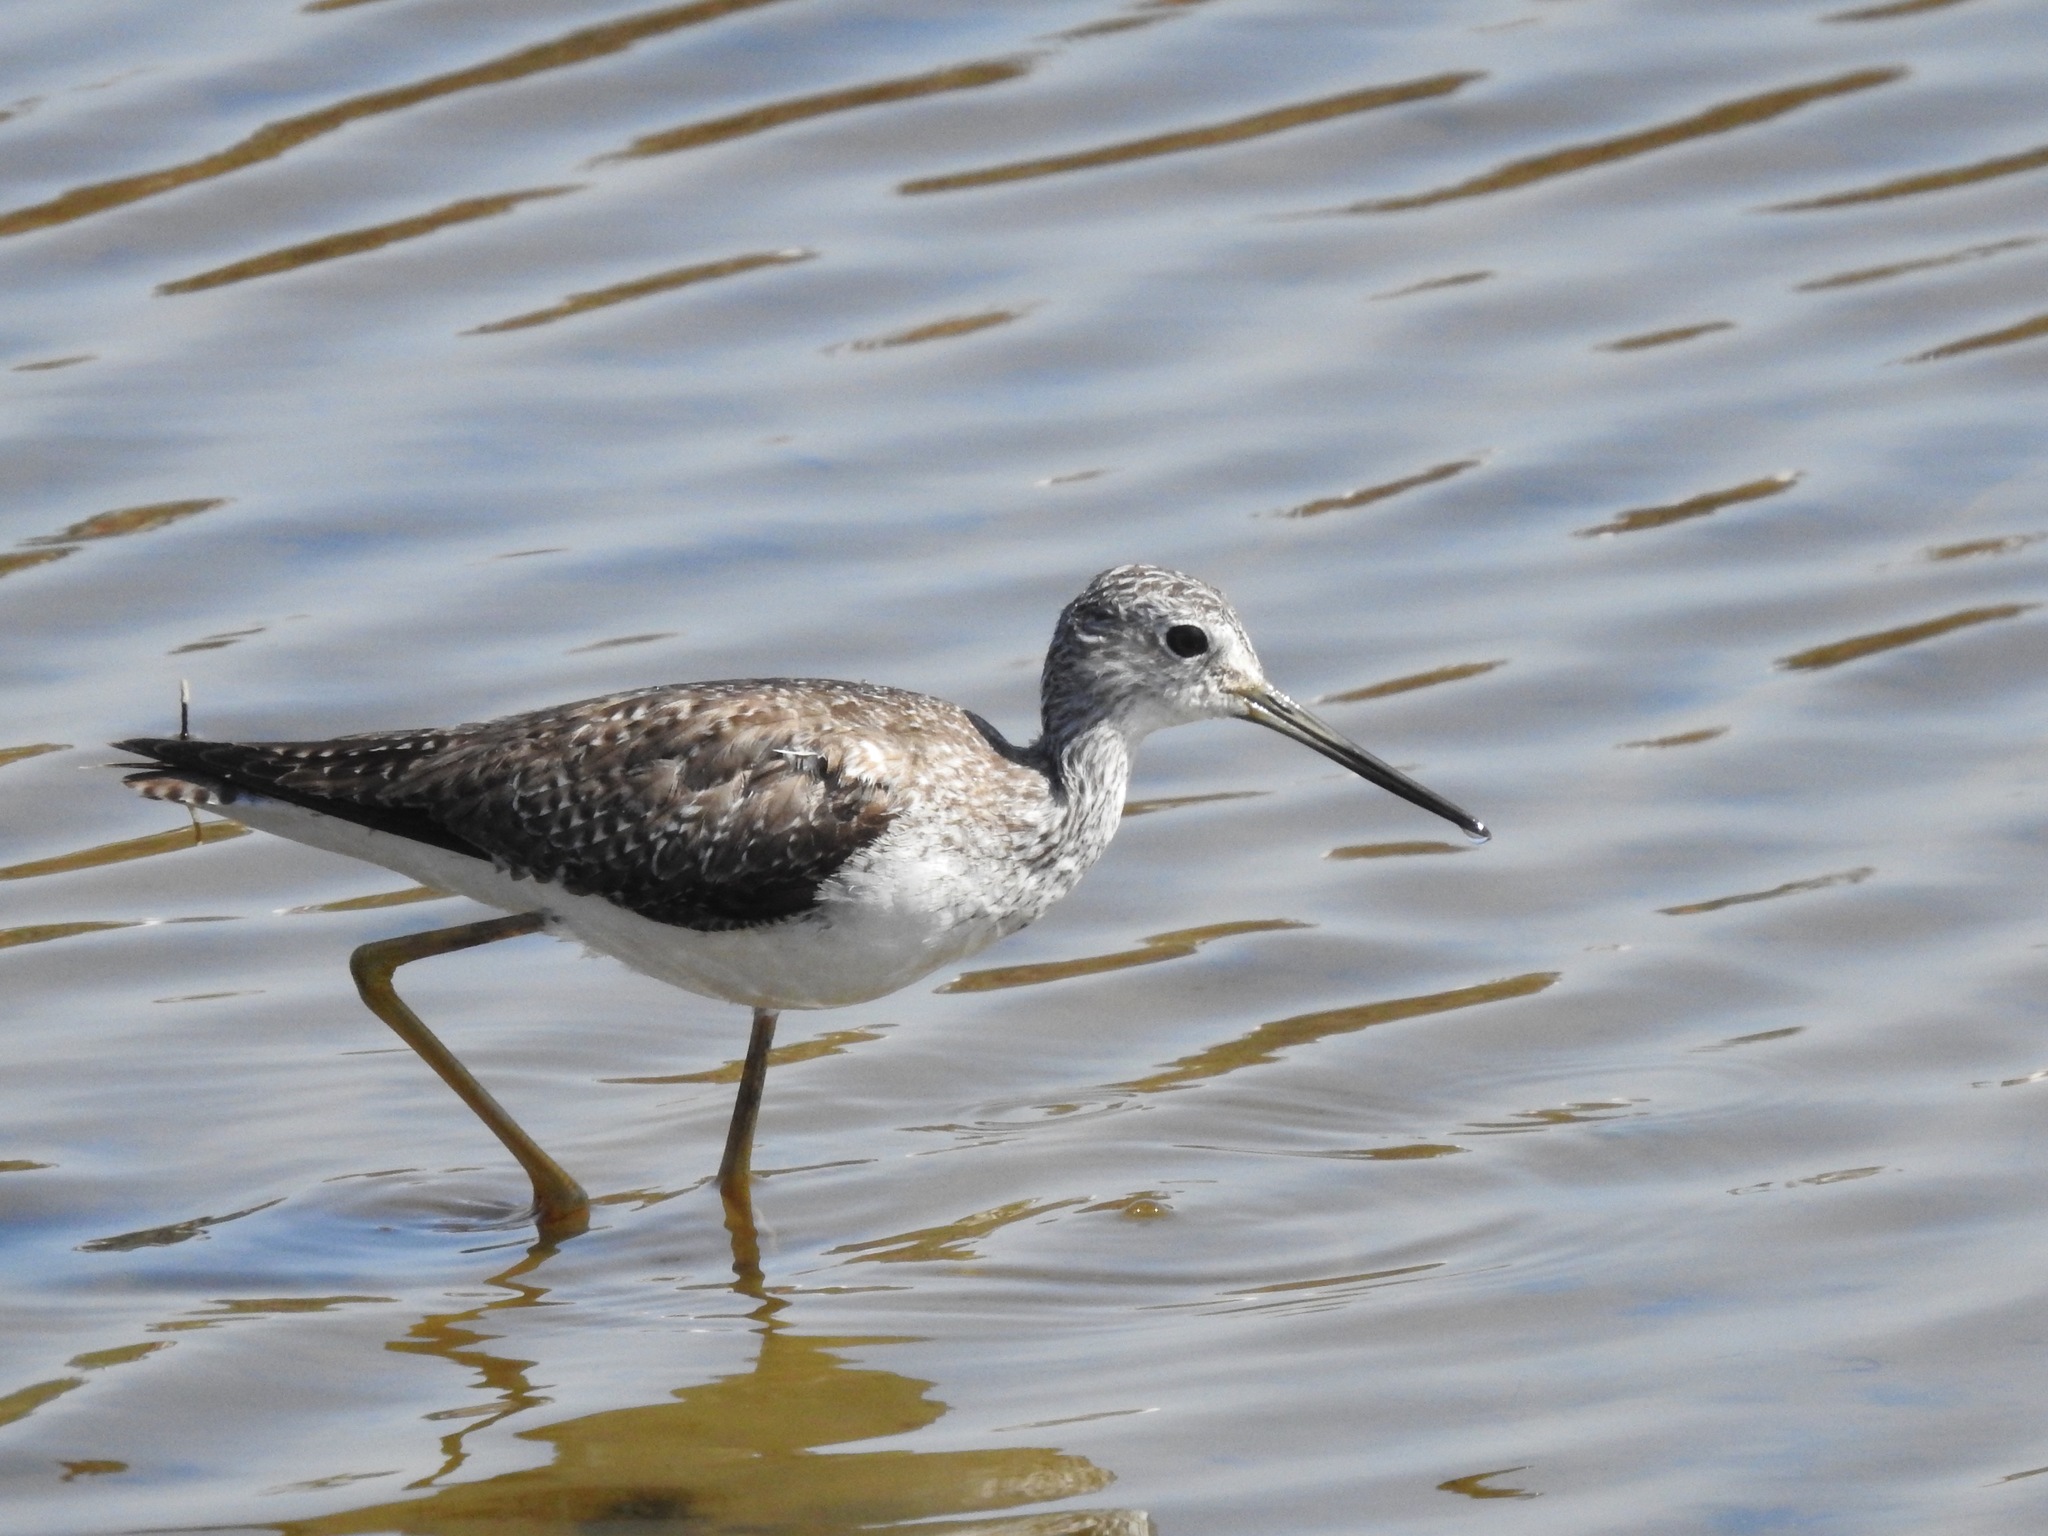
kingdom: Animalia
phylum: Chordata
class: Aves
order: Charadriiformes
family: Scolopacidae
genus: Tringa
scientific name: Tringa melanoleuca
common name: Greater yellowlegs
